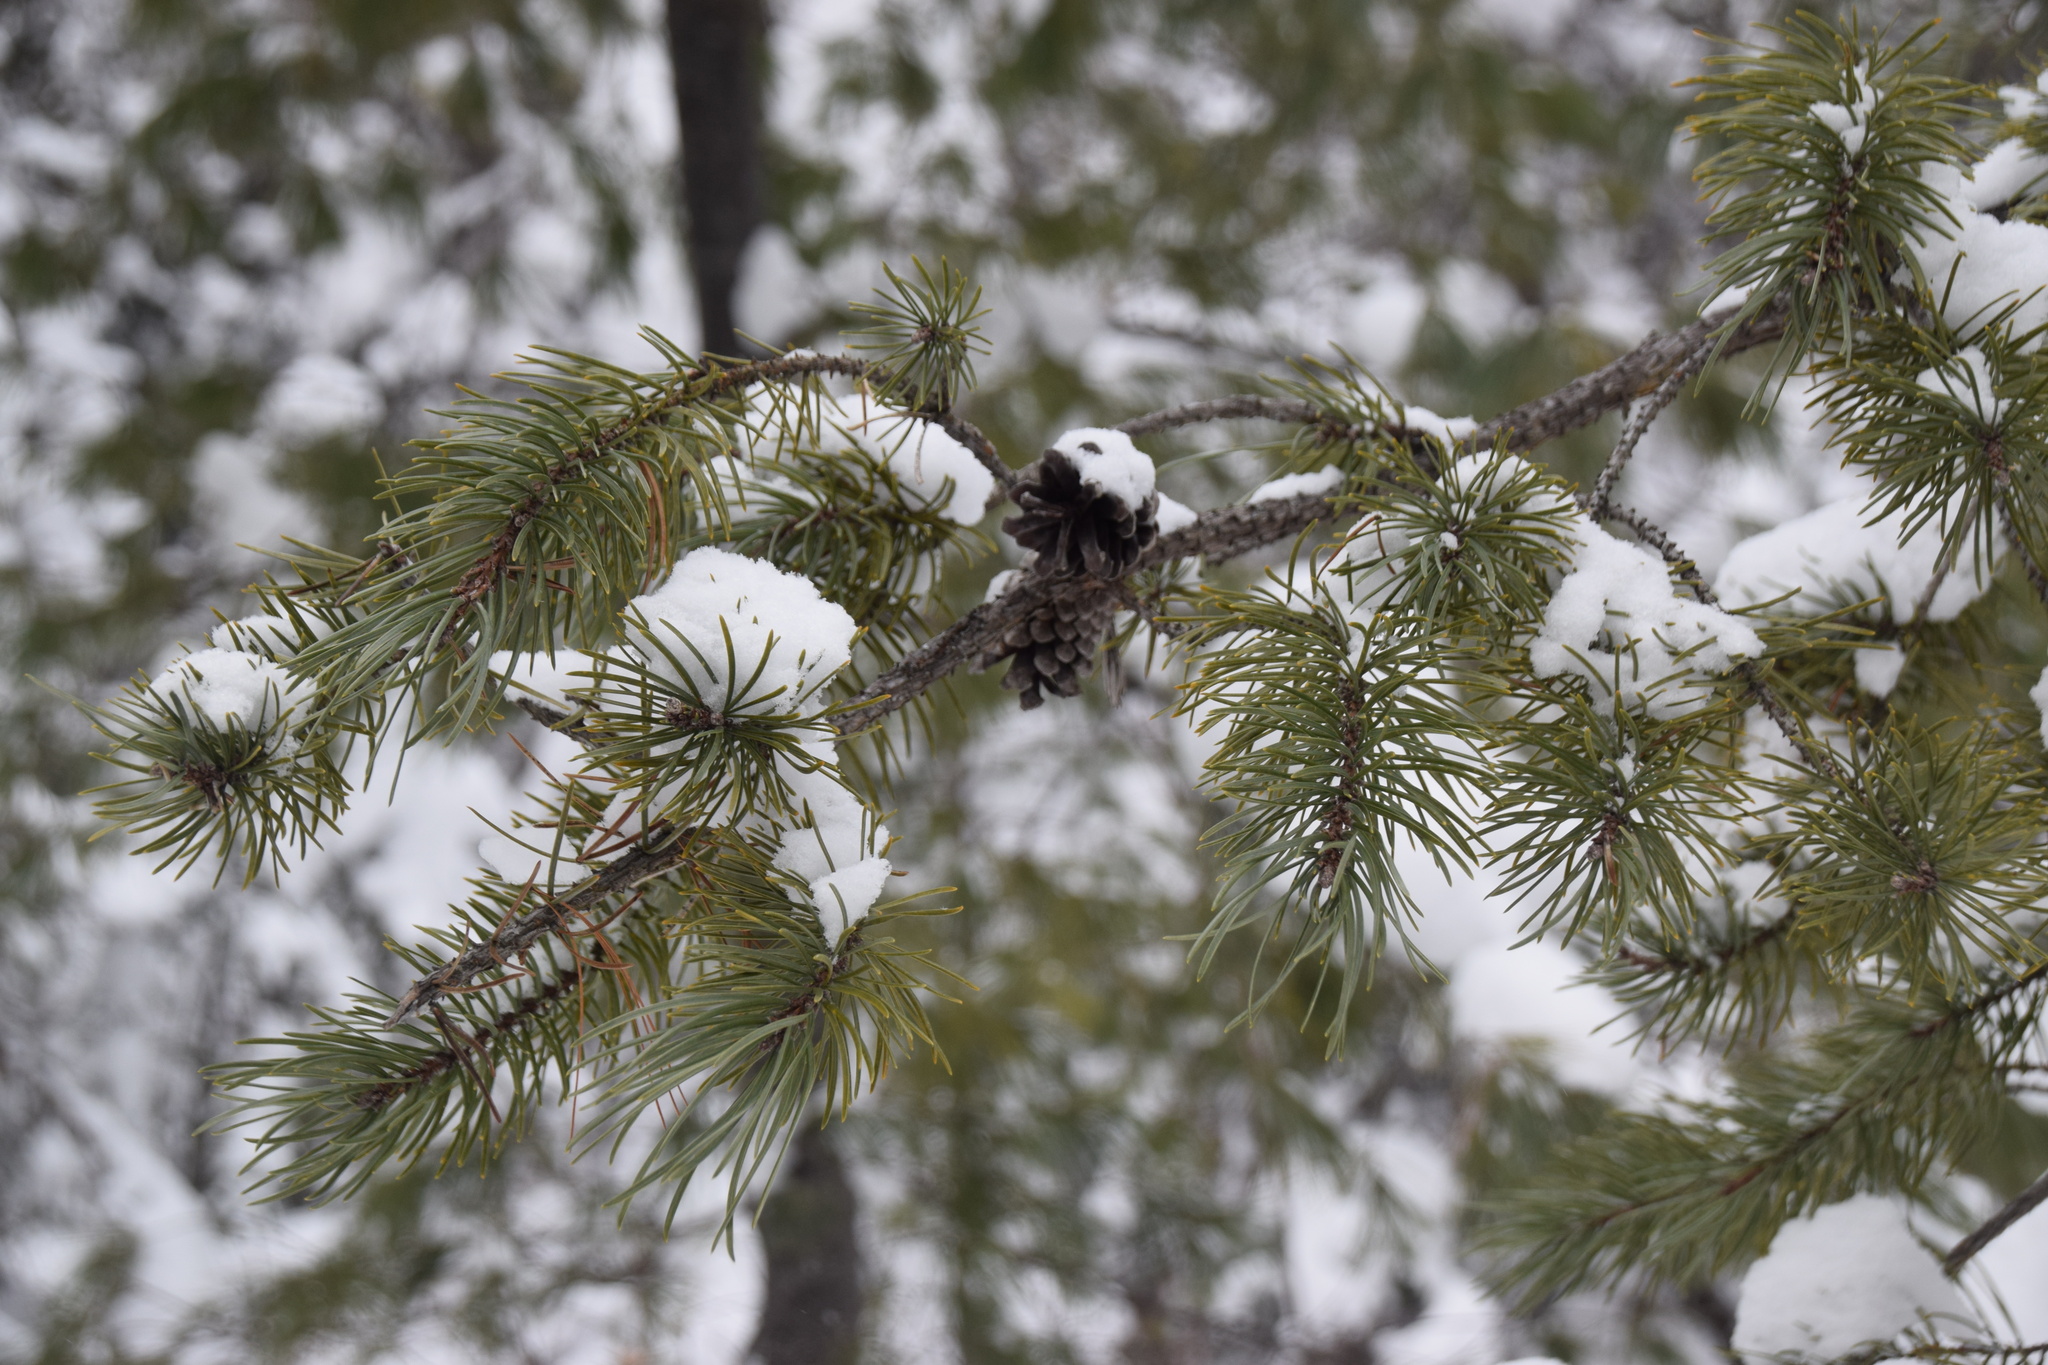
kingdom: Plantae
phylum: Tracheophyta
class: Pinopsida
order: Pinales
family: Pinaceae
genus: Pinus
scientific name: Pinus banksiana
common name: Jack pine
